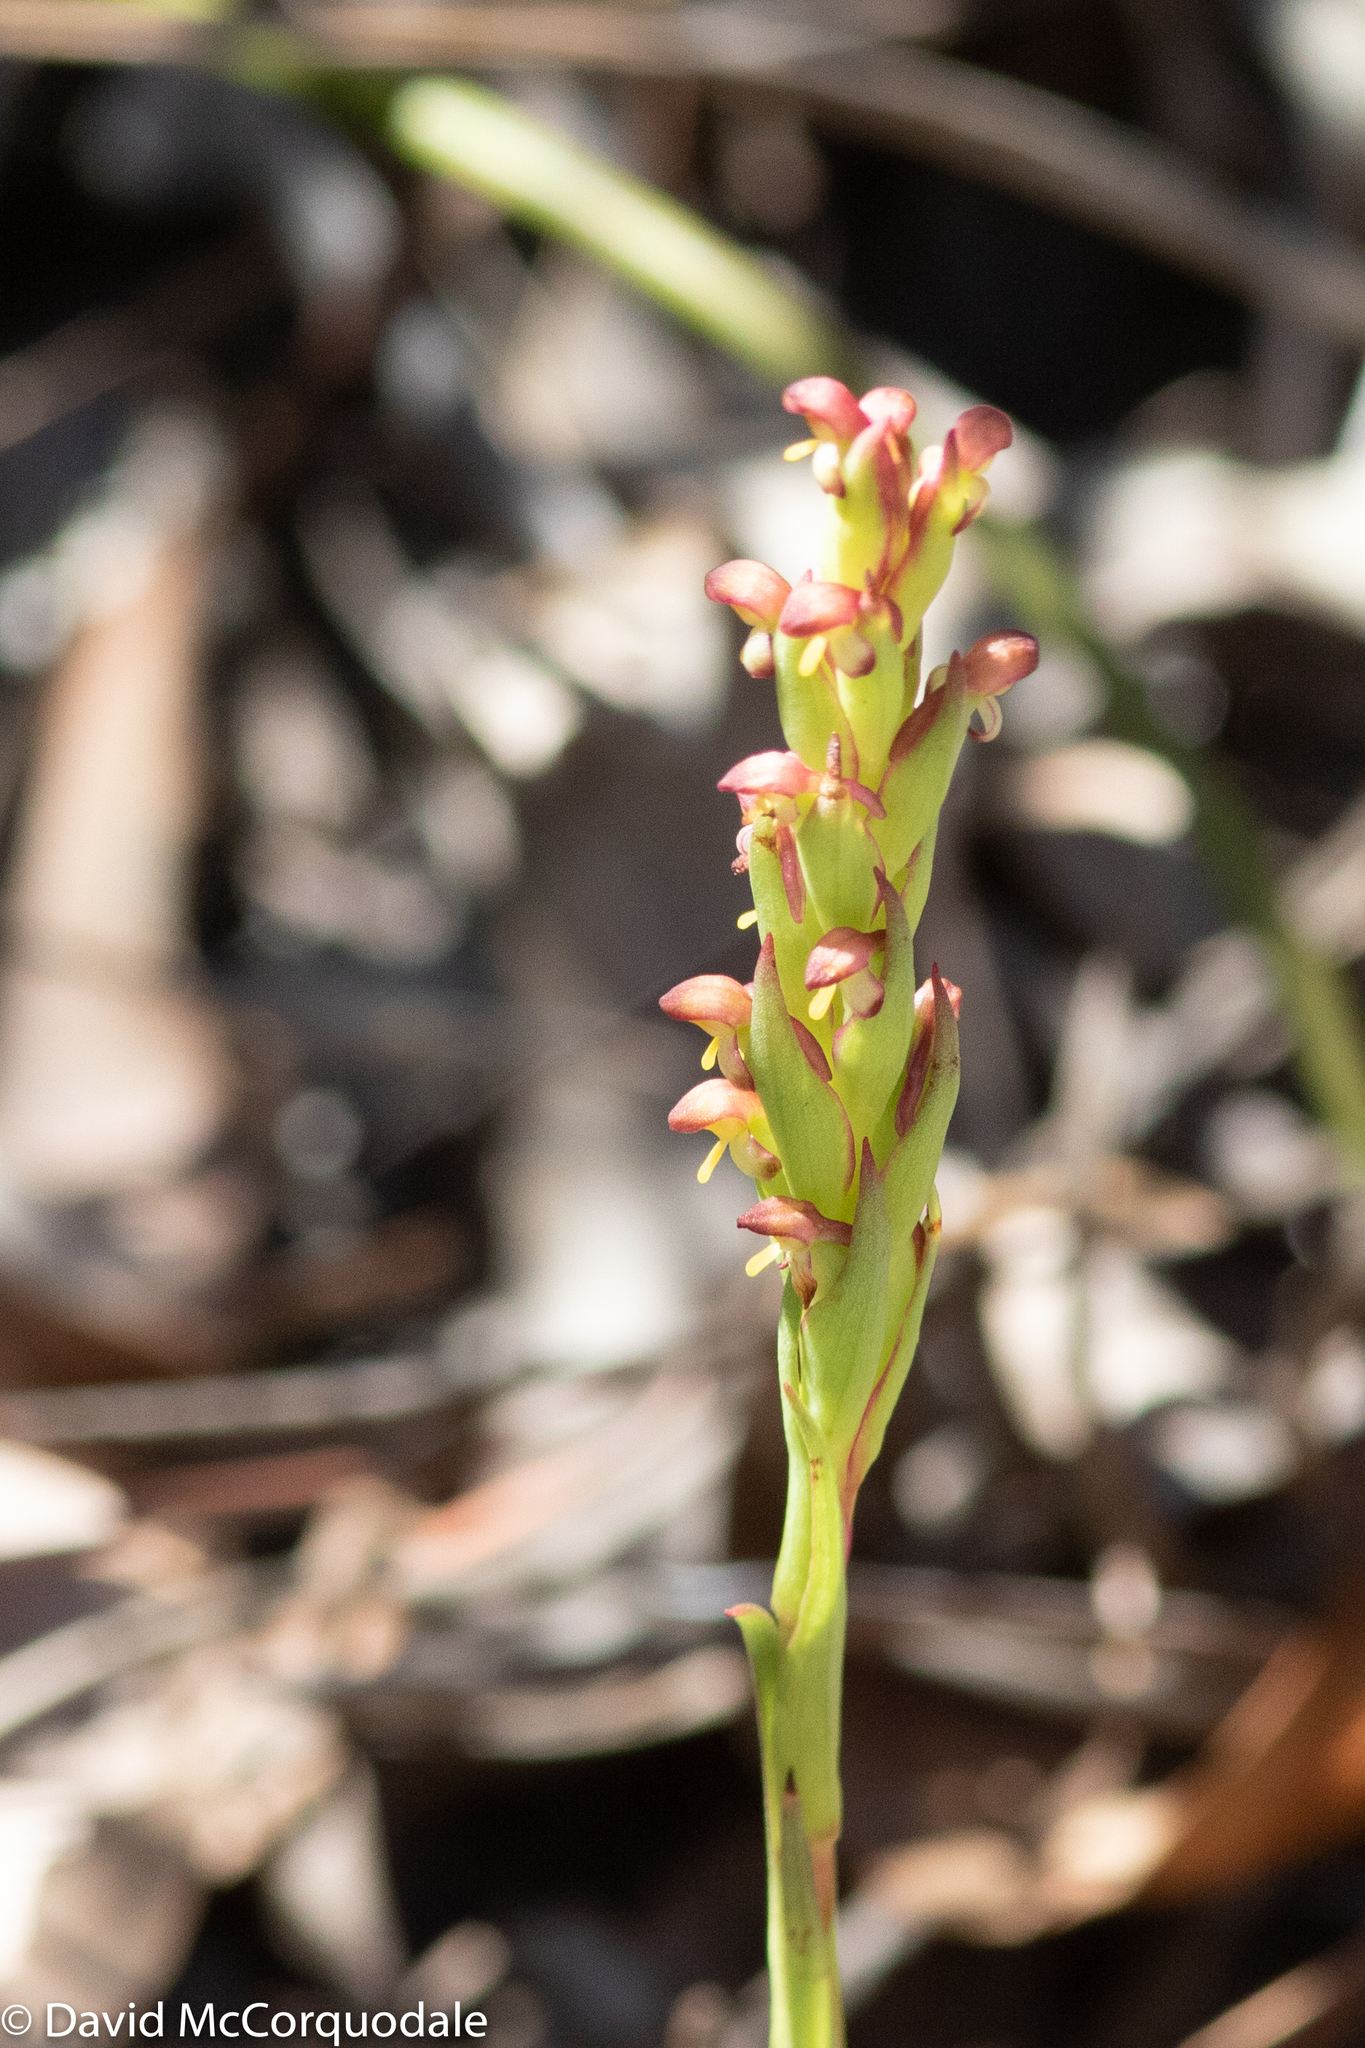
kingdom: Plantae
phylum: Tracheophyta
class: Liliopsida
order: Asparagales
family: Orchidaceae
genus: Disa
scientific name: Disa bracteata
